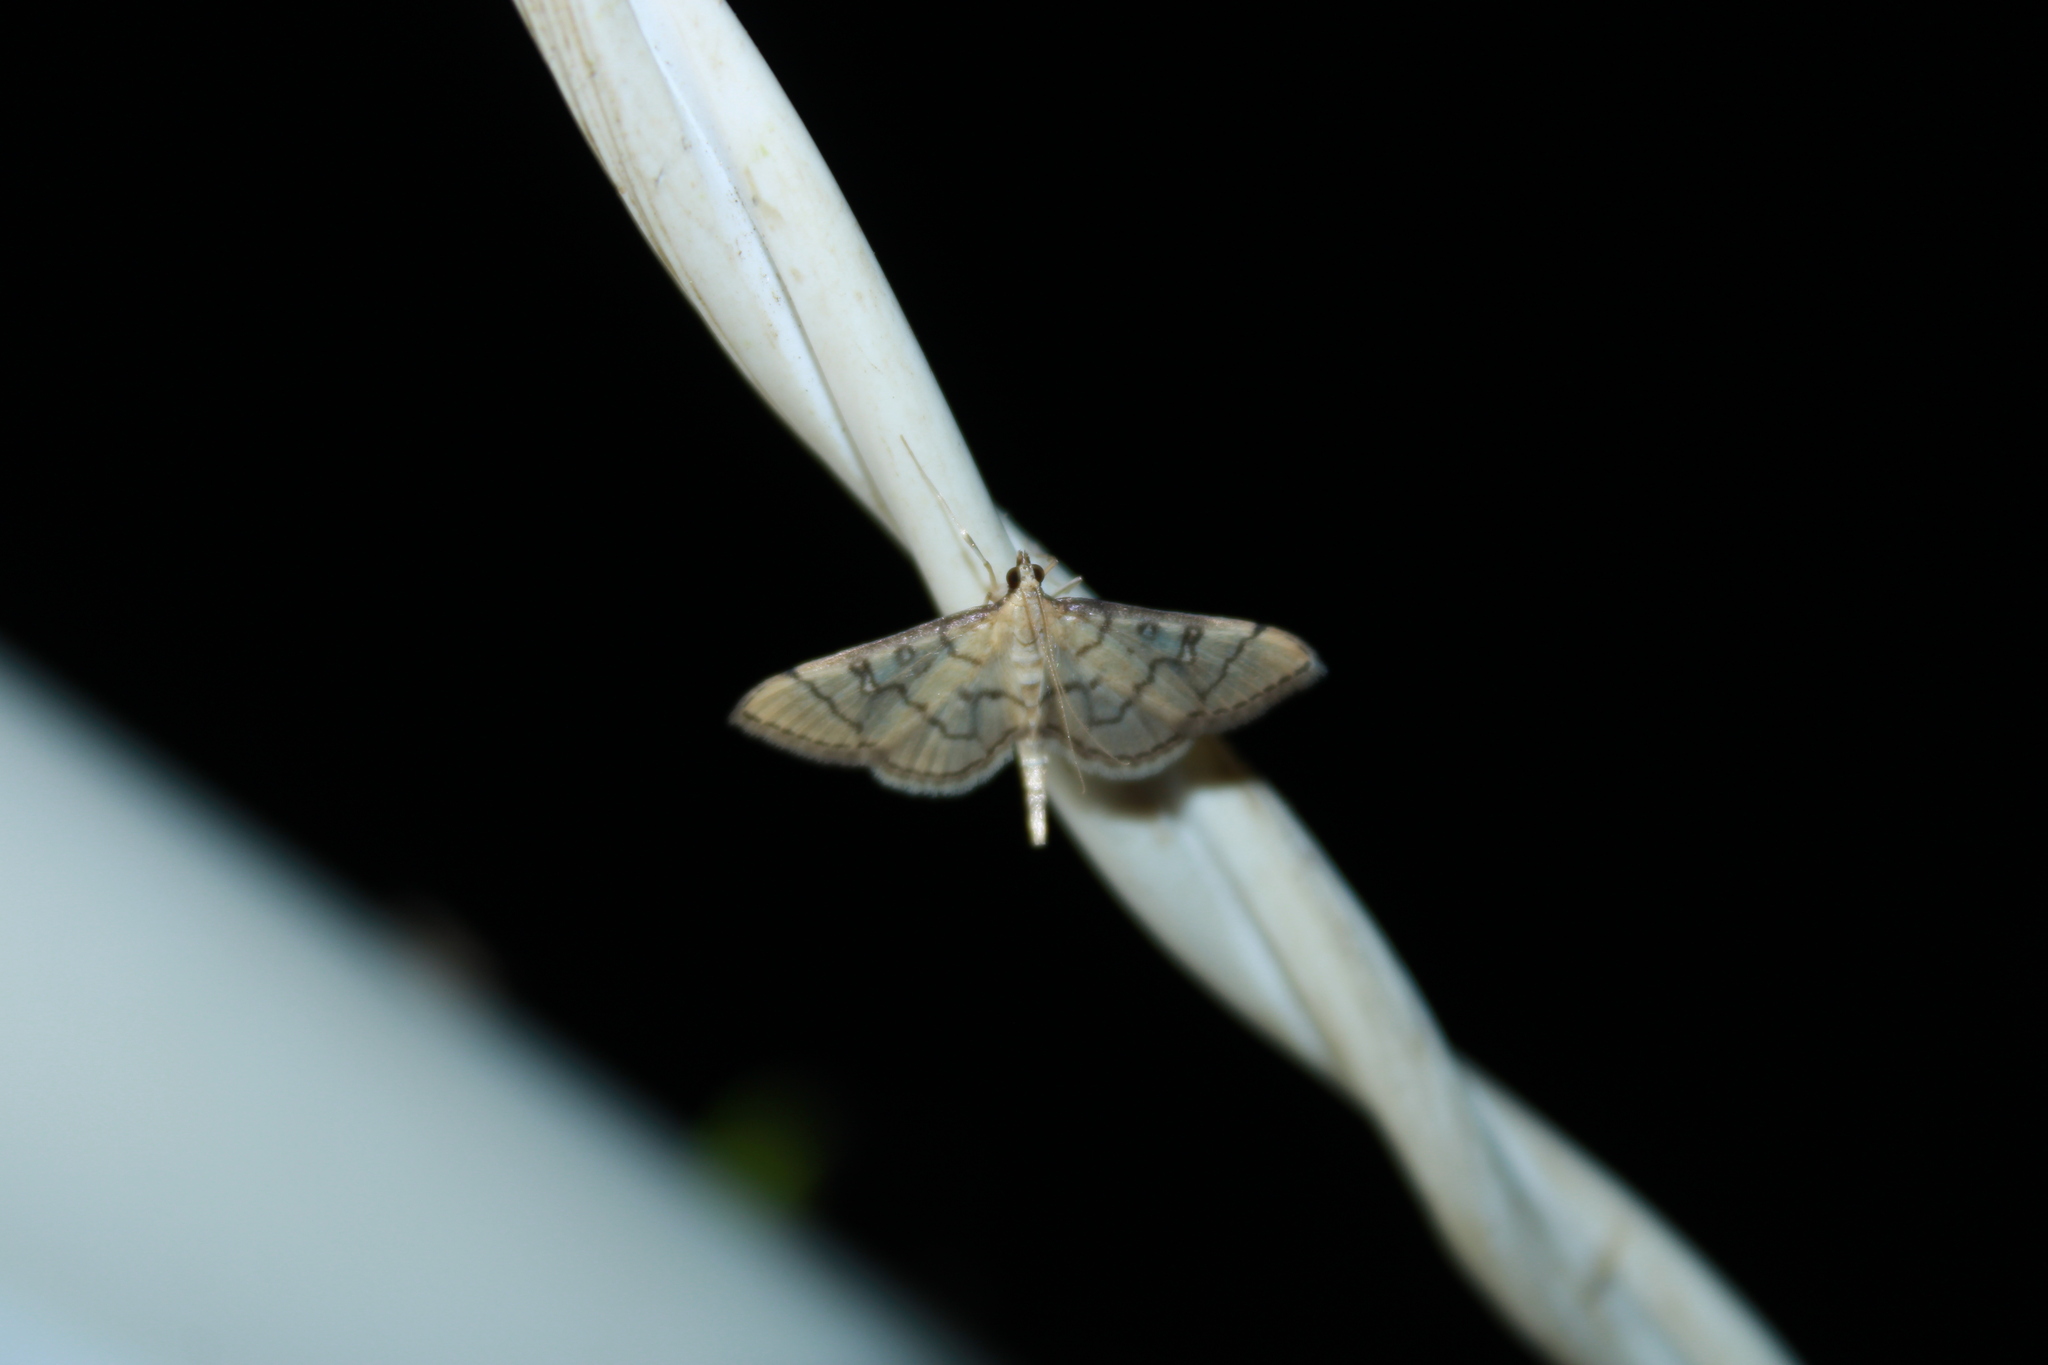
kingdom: Animalia
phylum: Arthropoda
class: Insecta
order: Lepidoptera
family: Crambidae
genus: Lamprosema
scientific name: Lamprosema Blepharomastix ranalis
